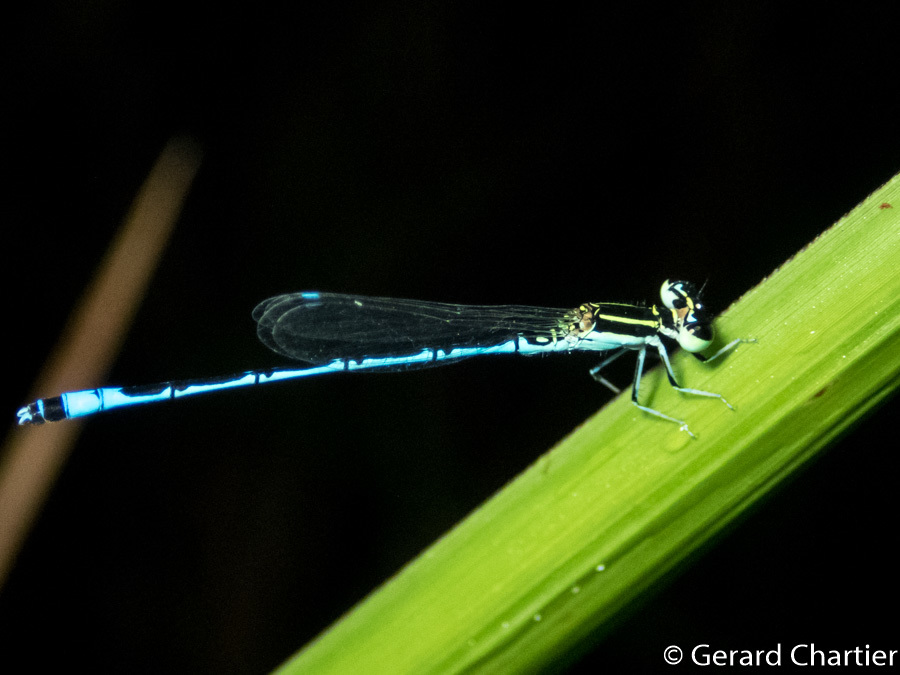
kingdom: Animalia
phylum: Arthropoda
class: Insecta
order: Odonata
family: Coenagrionidae
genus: Agriocnemis
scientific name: Agriocnemis nana
